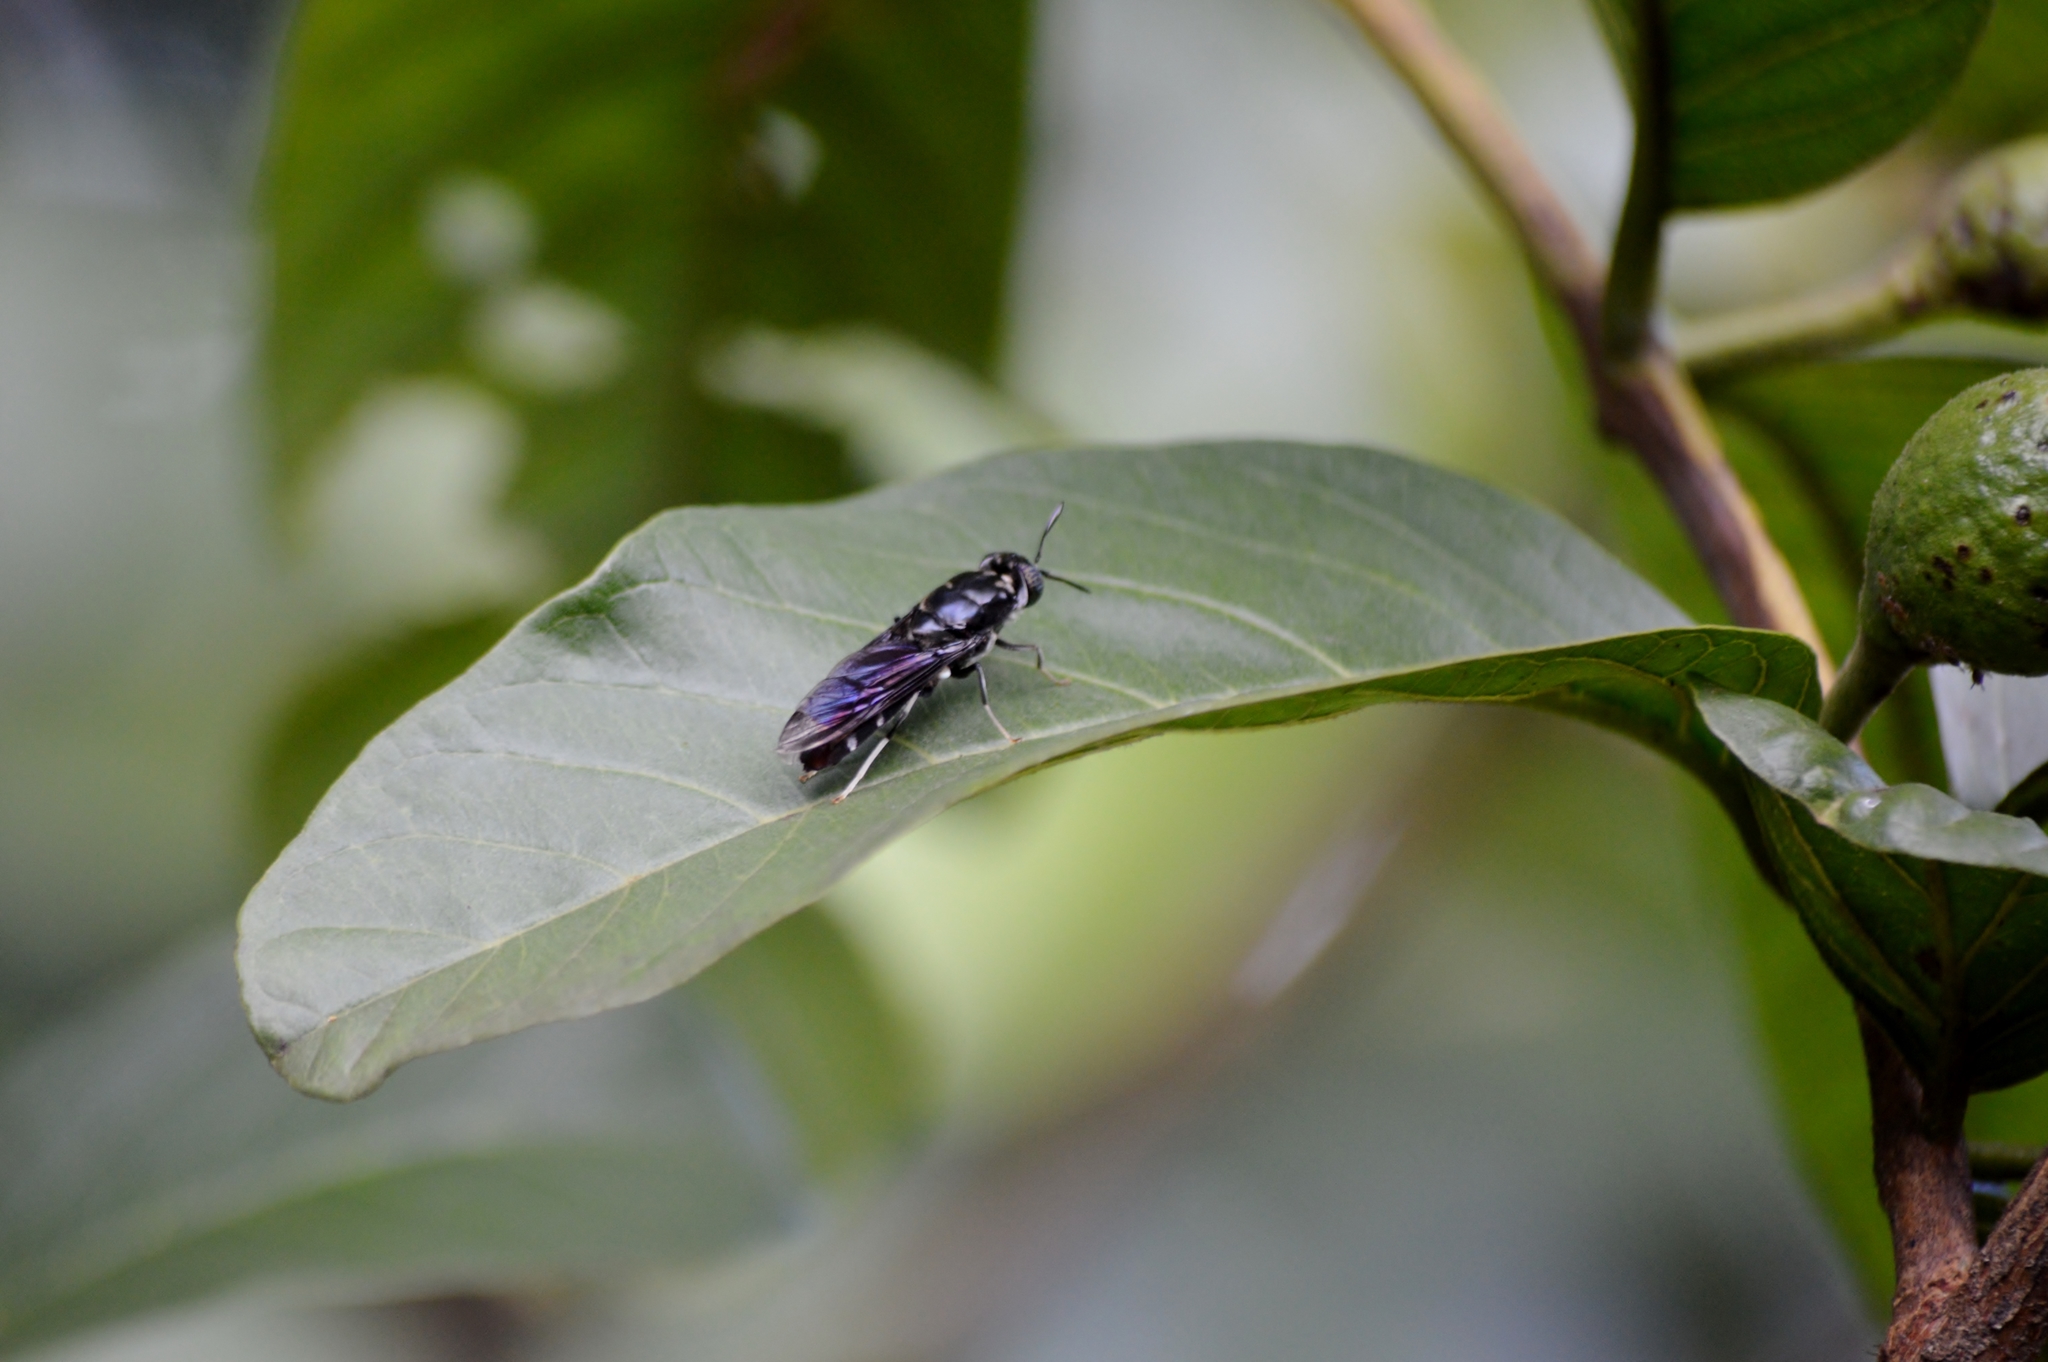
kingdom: Animalia
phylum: Arthropoda
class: Insecta
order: Diptera
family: Stratiomyidae
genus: Hermetia
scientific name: Hermetia illucens
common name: Black soldier fly
